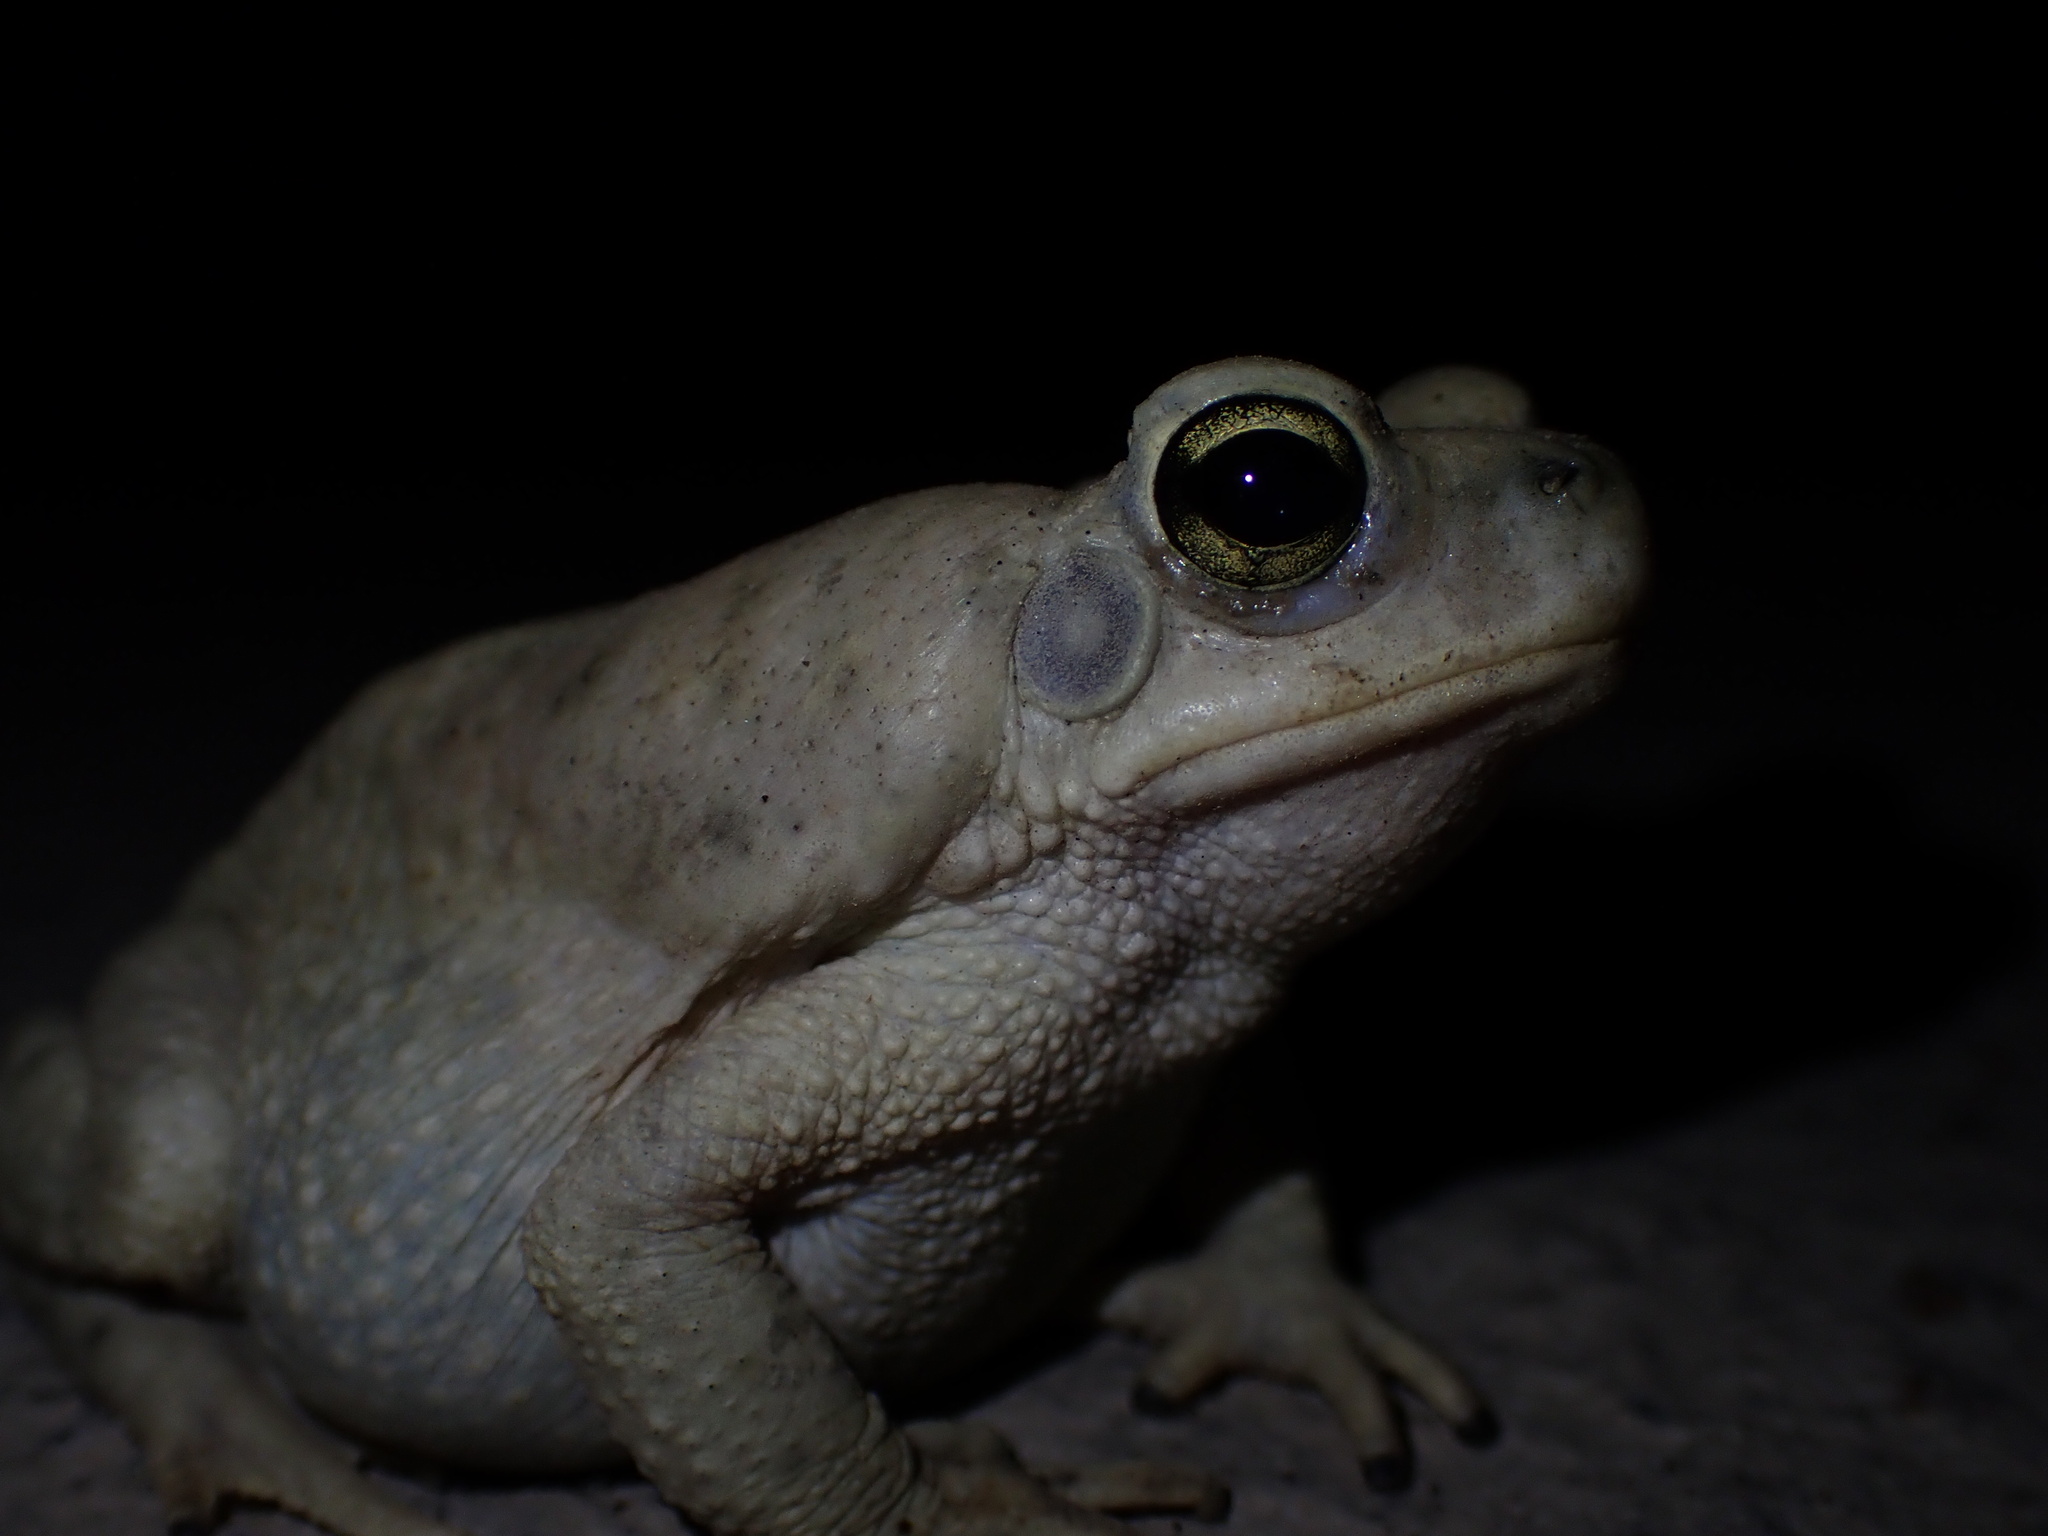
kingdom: Animalia
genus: Firouzophrynus
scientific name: Firouzophrynus
